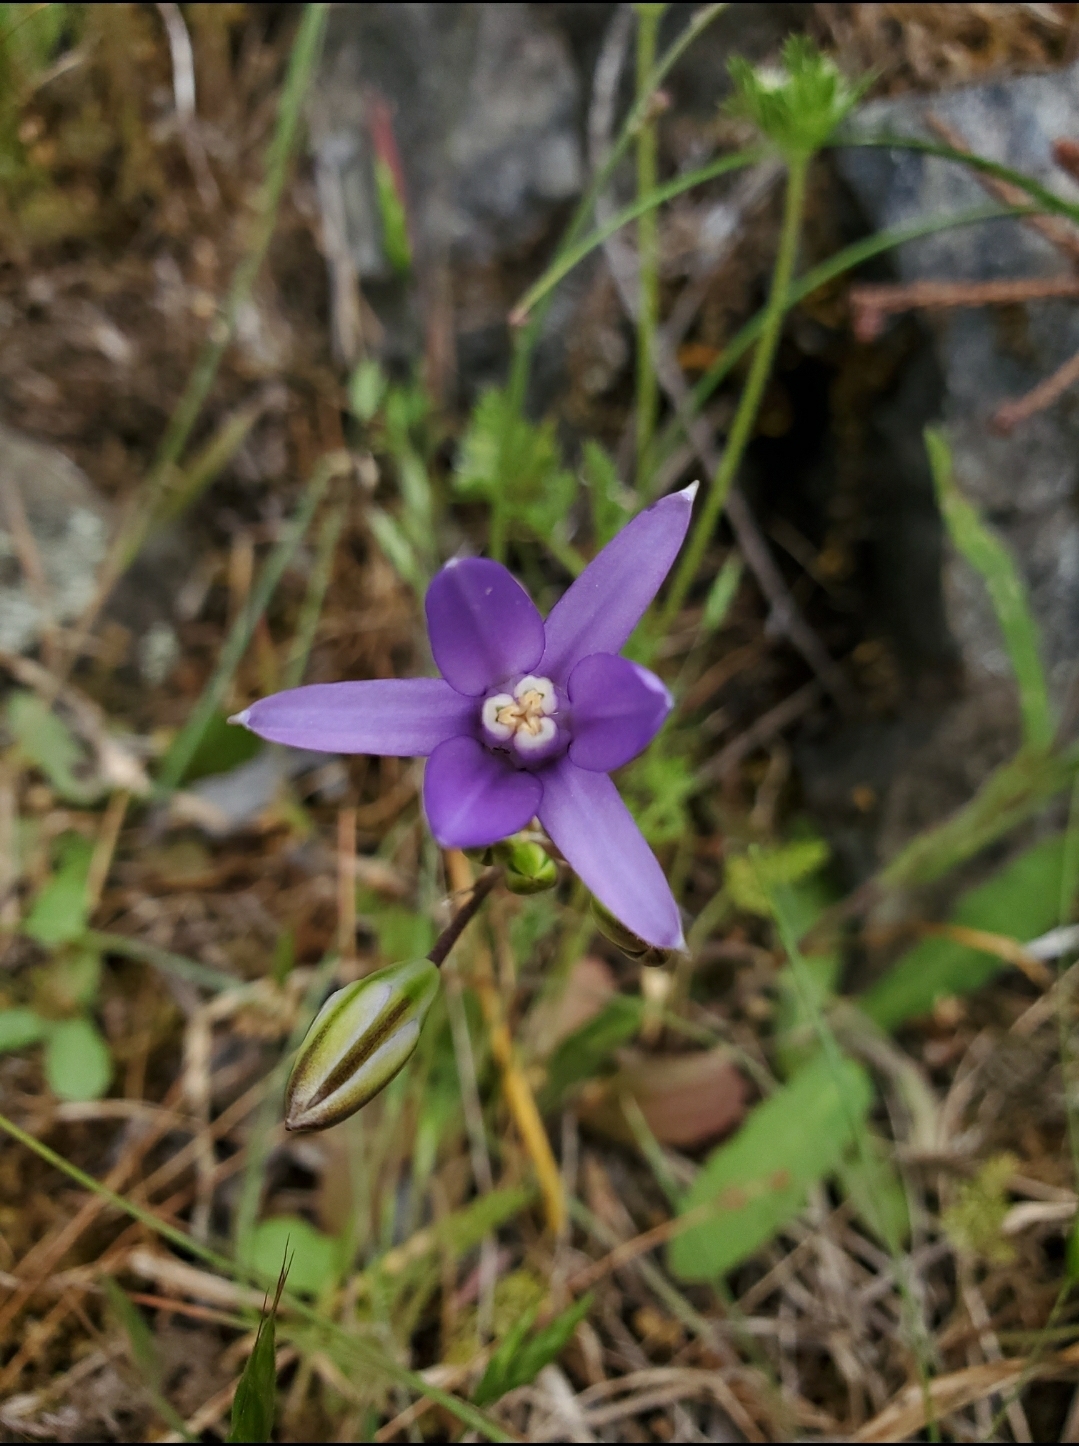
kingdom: Plantae
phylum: Tracheophyta
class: Liliopsida
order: Asparagales
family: Asparagaceae
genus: Brodiaea
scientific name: Brodiaea coronaria
